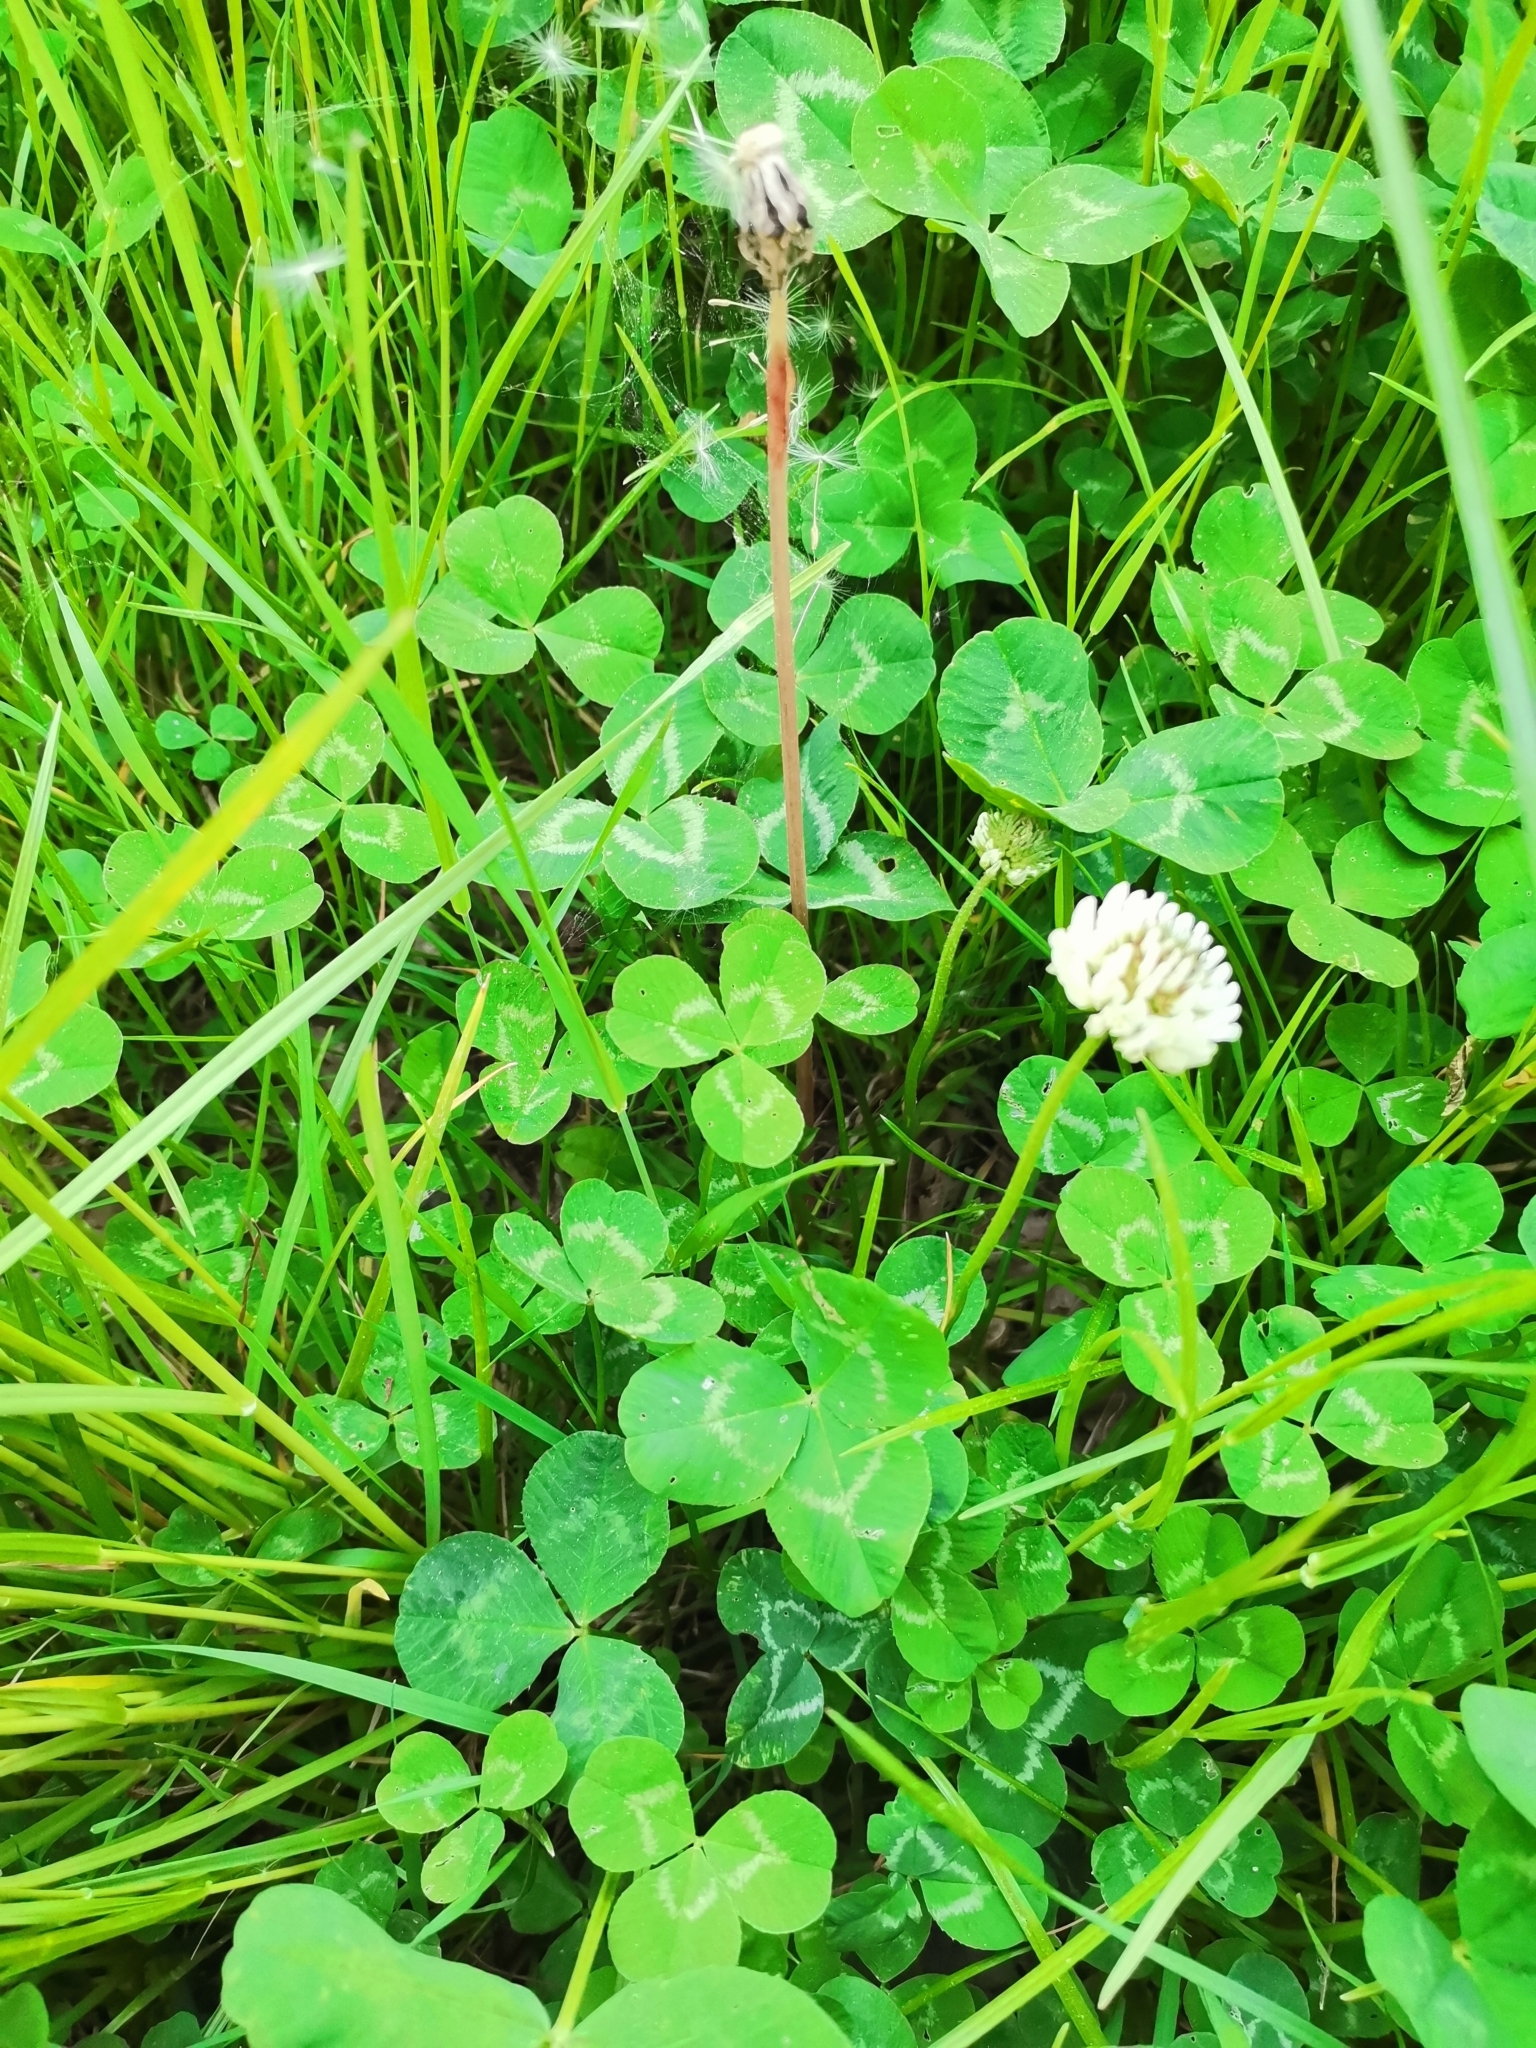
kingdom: Plantae
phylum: Tracheophyta
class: Magnoliopsida
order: Fabales
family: Fabaceae
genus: Trifolium
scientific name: Trifolium repens
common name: White clover
